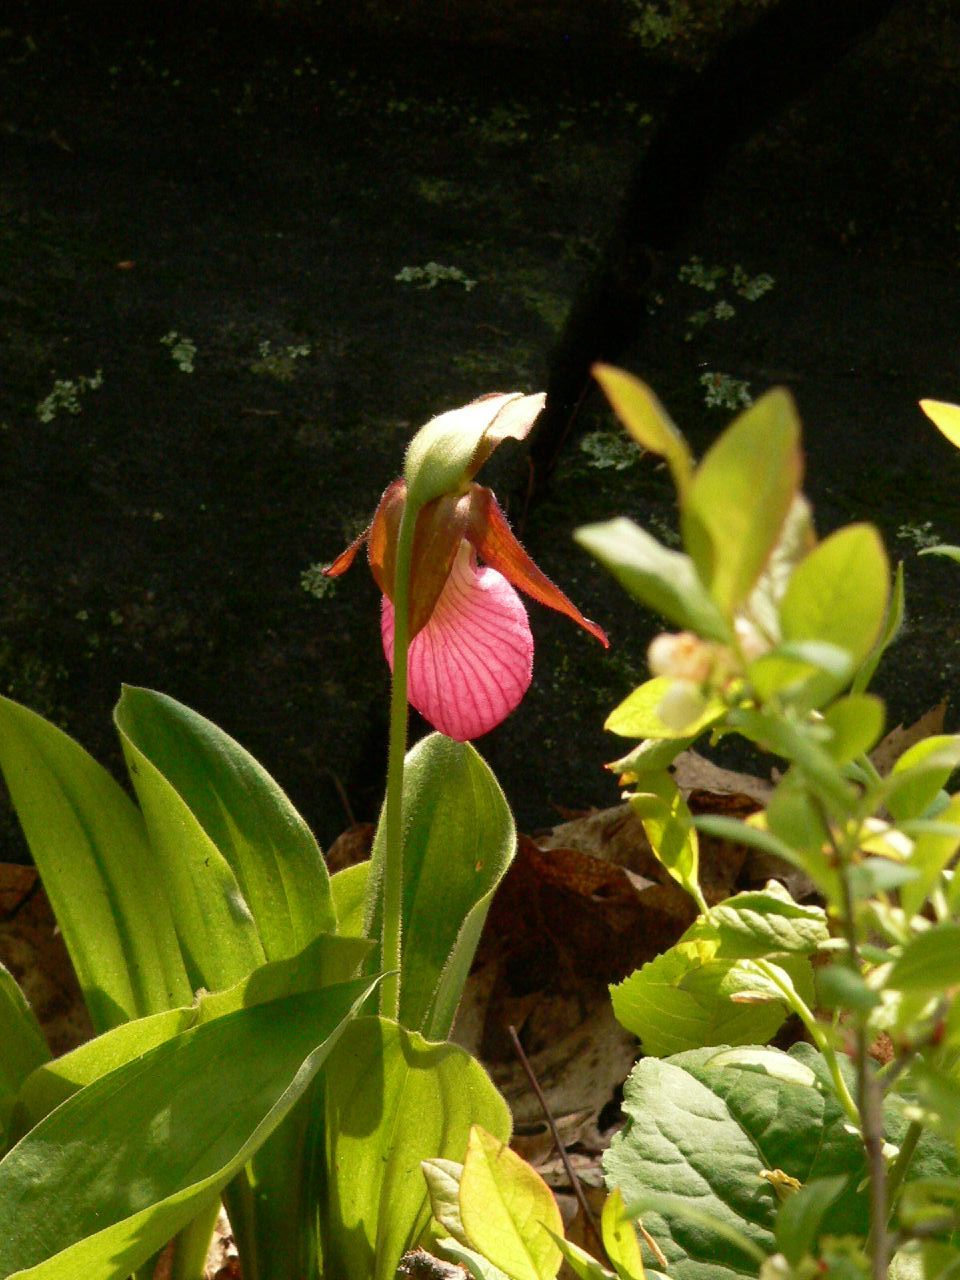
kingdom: Plantae
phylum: Tracheophyta
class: Liliopsida
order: Asparagales
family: Orchidaceae
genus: Cypripedium
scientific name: Cypripedium acaule
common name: Pink lady's-slipper
